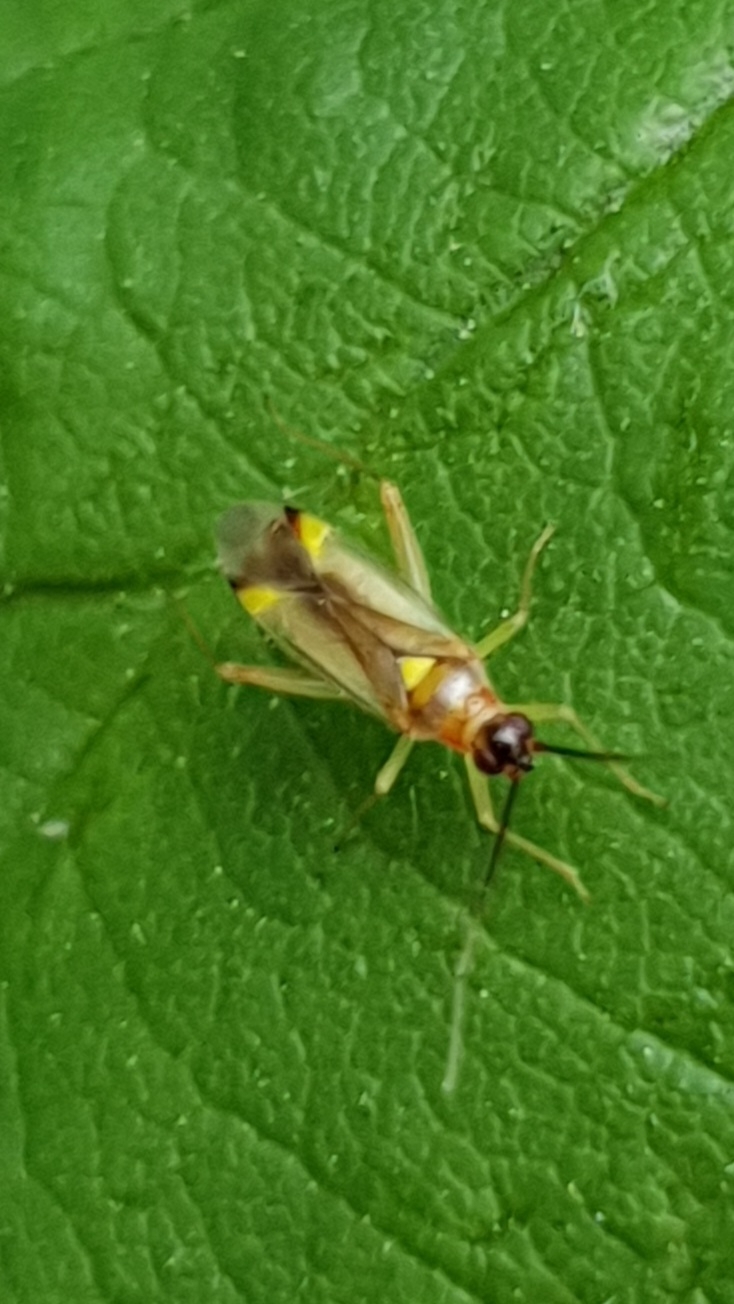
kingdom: Animalia
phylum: Arthropoda
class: Insecta
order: Hemiptera
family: Miridae
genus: Campyloneura
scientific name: Campyloneura virgula
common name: Predatory bug
